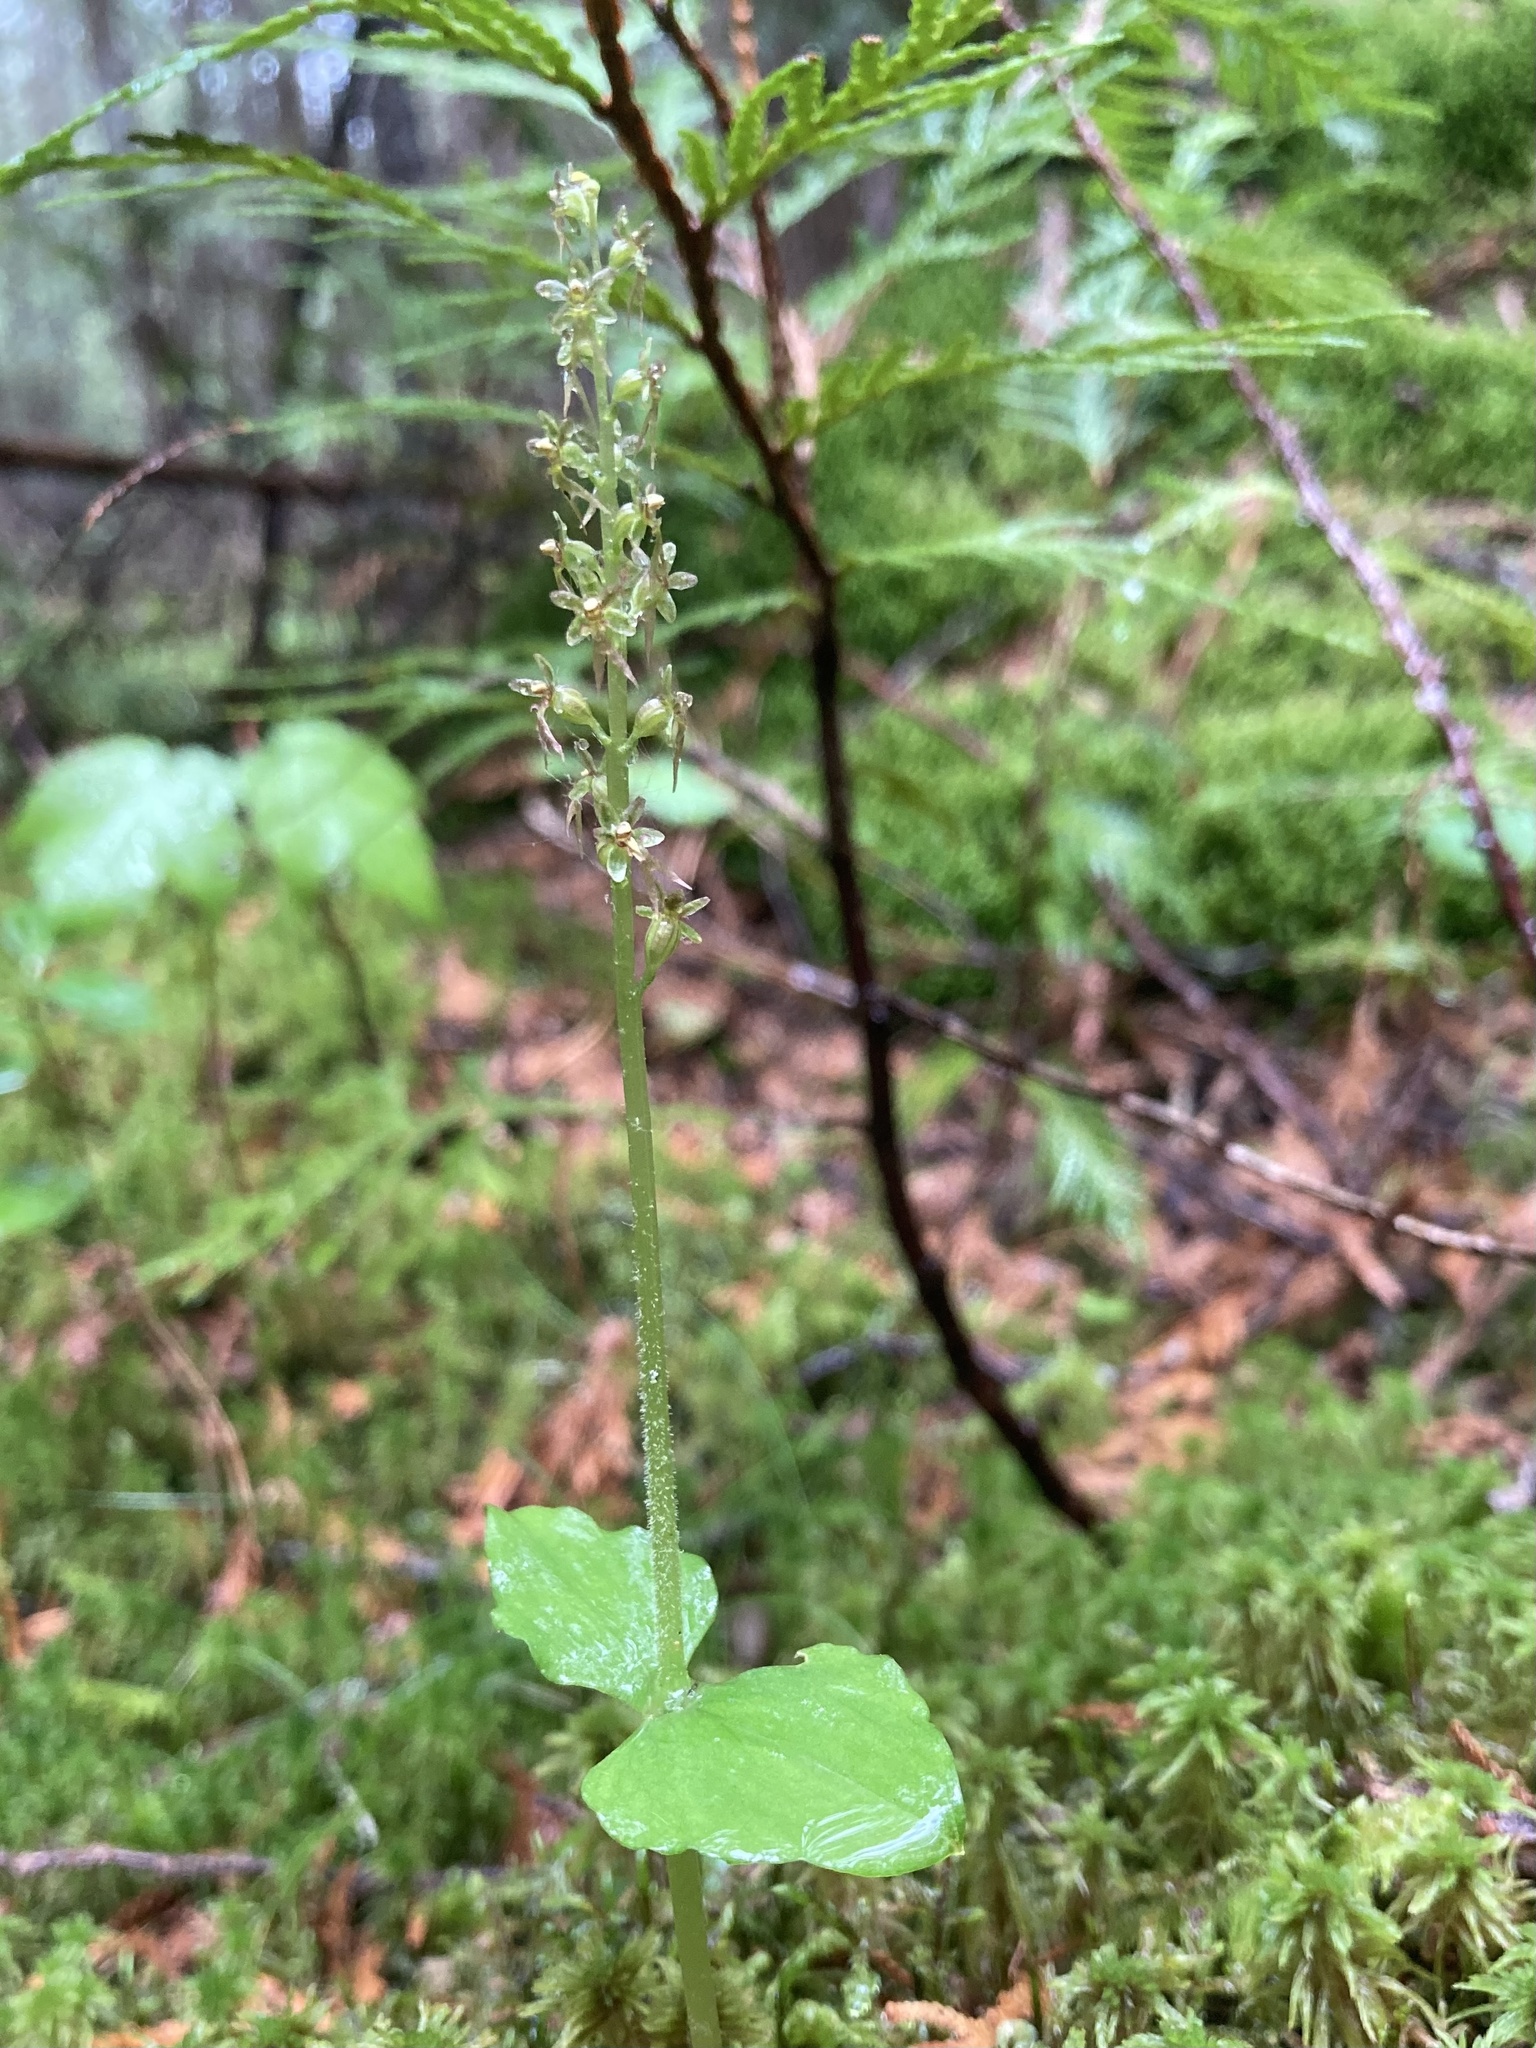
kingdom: Plantae
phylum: Tracheophyta
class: Liliopsida
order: Asparagales
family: Orchidaceae
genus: Neottia
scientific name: Neottia cordata
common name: Lesser twayblade
